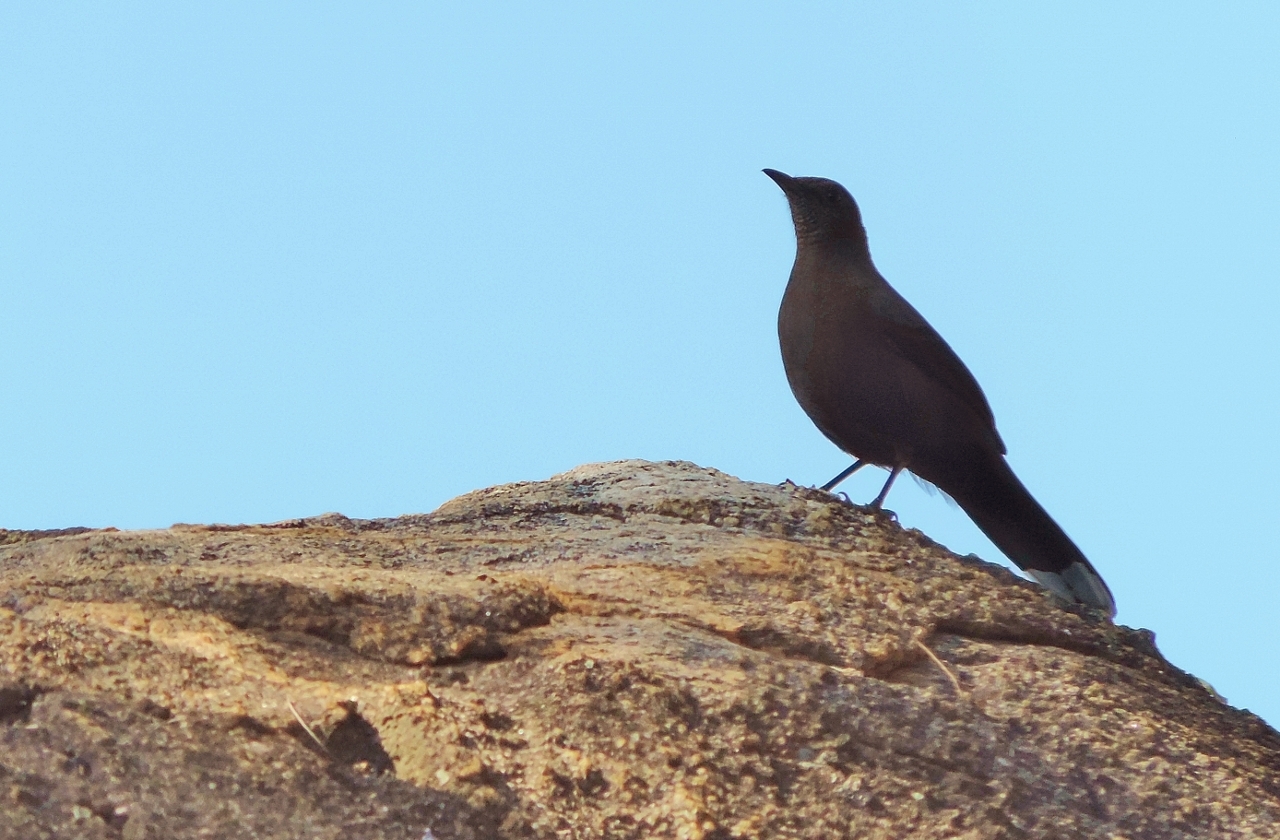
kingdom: Animalia
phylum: Chordata
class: Aves
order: Passeriformes
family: Muscicapidae
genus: Pinarornis
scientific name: Pinarornis plumosus
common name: Boulder chat
